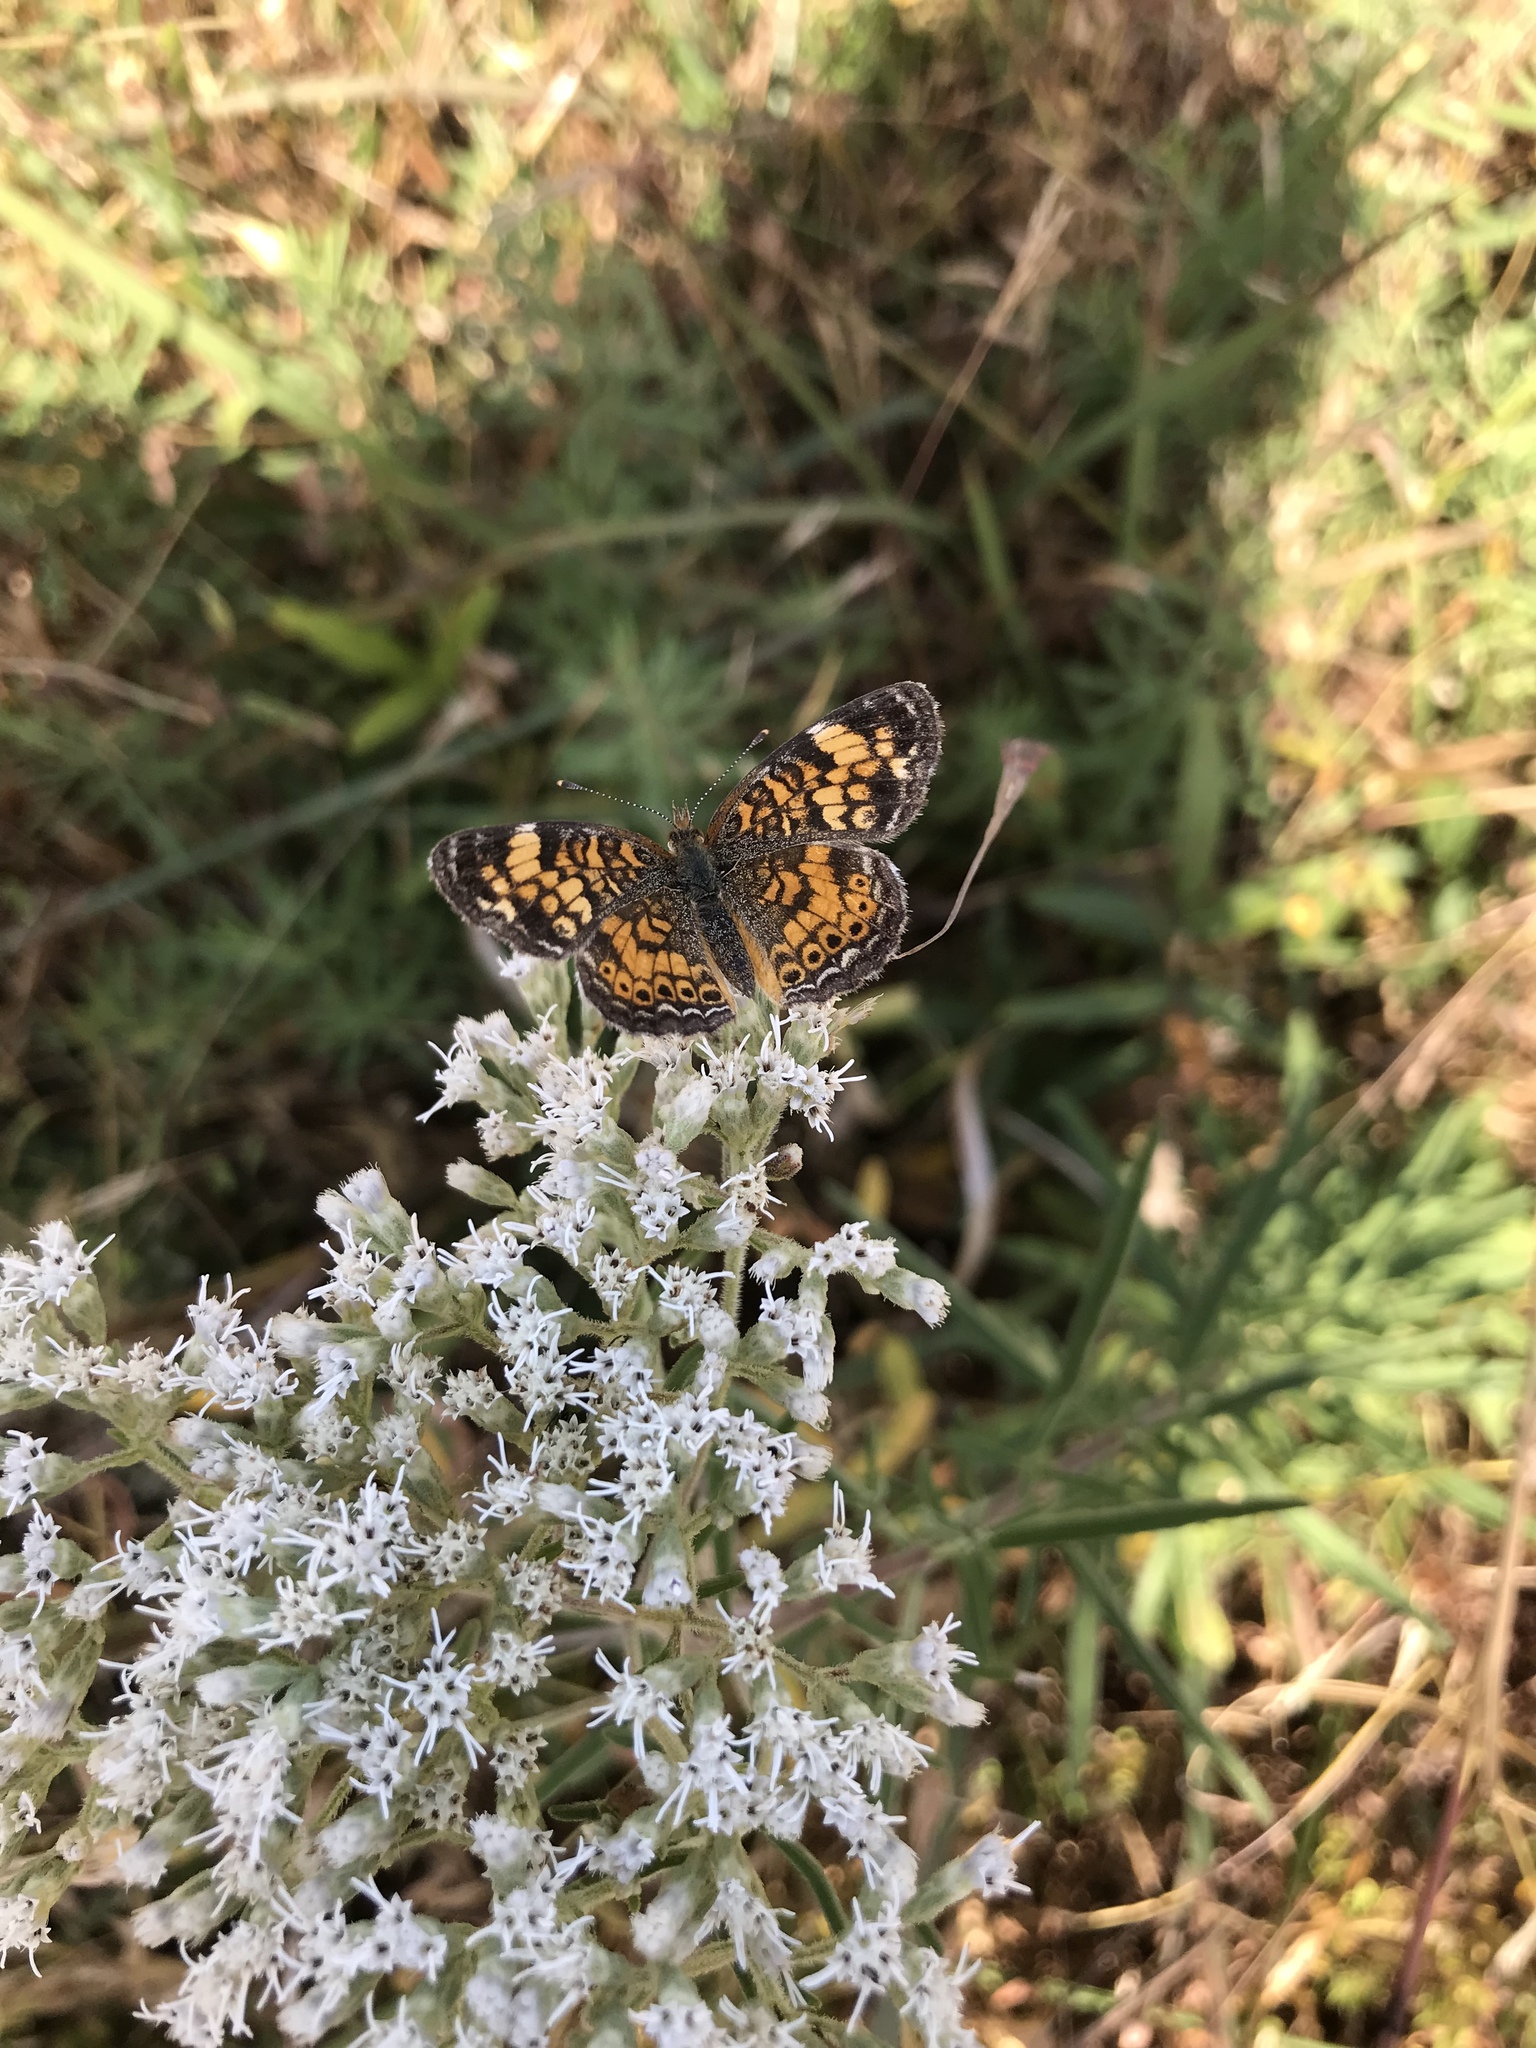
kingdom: Animalia
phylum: Arthropoda
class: Insecta
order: Lepidoptera
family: Nymphalidae
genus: Phyciodes
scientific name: Phyciodes tharos
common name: Pearl crescent
